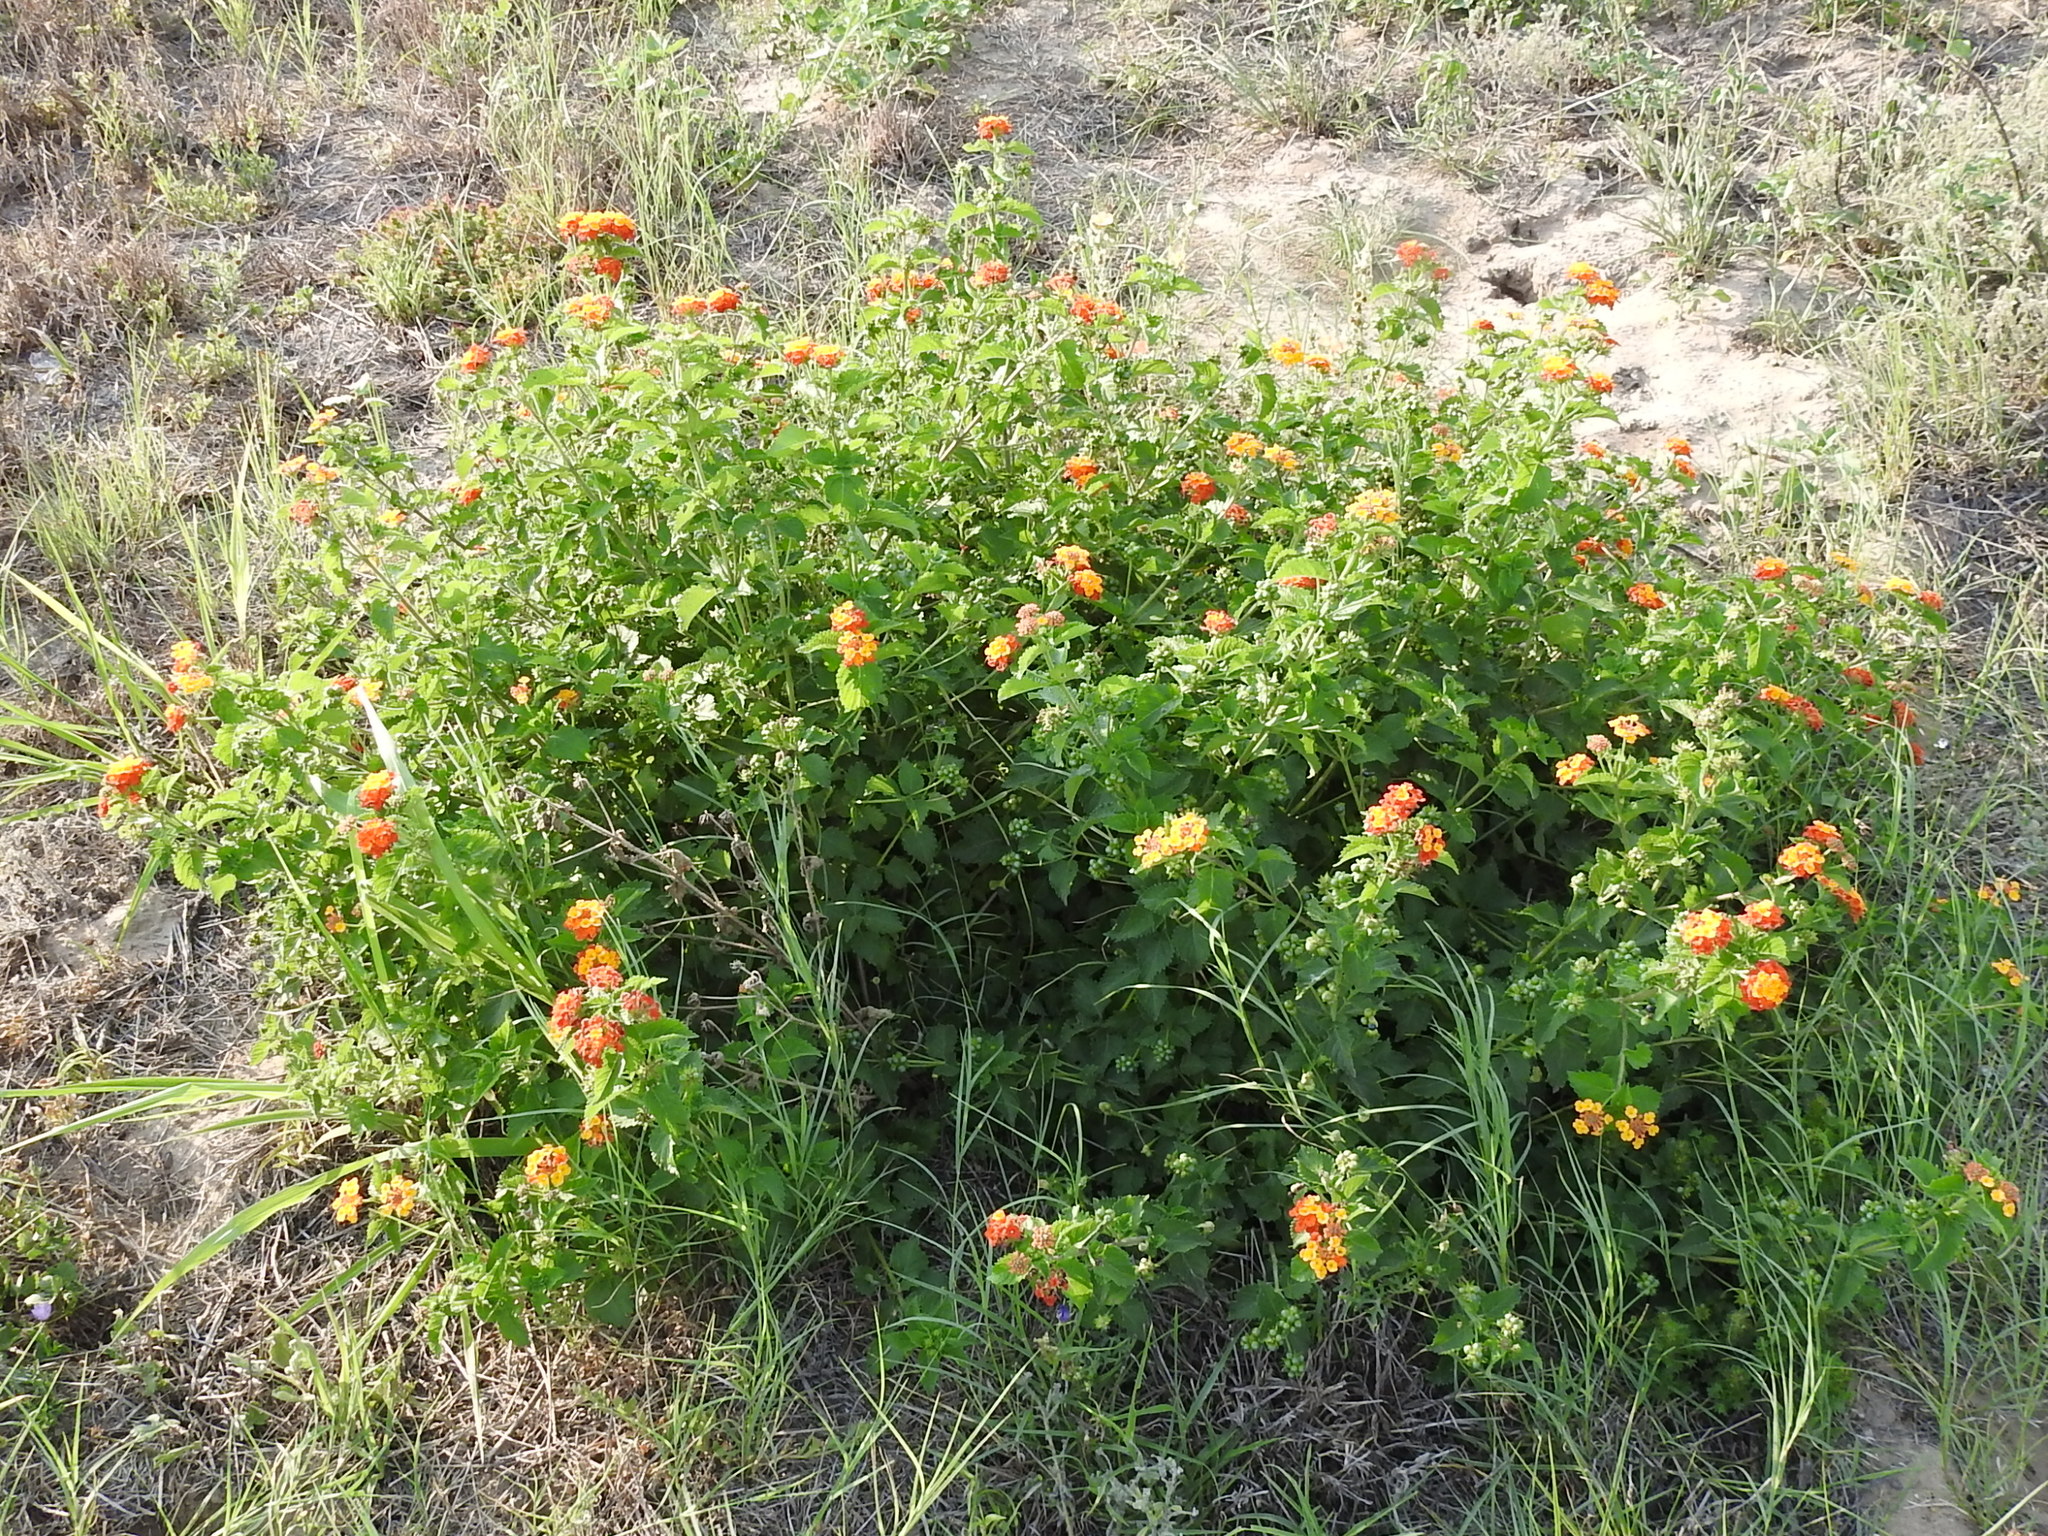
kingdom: Plantae
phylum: Tracheophyta
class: Magnoliopsida
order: Lamiales
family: Verbenaceae
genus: Lantana
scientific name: Lantana urticoides
